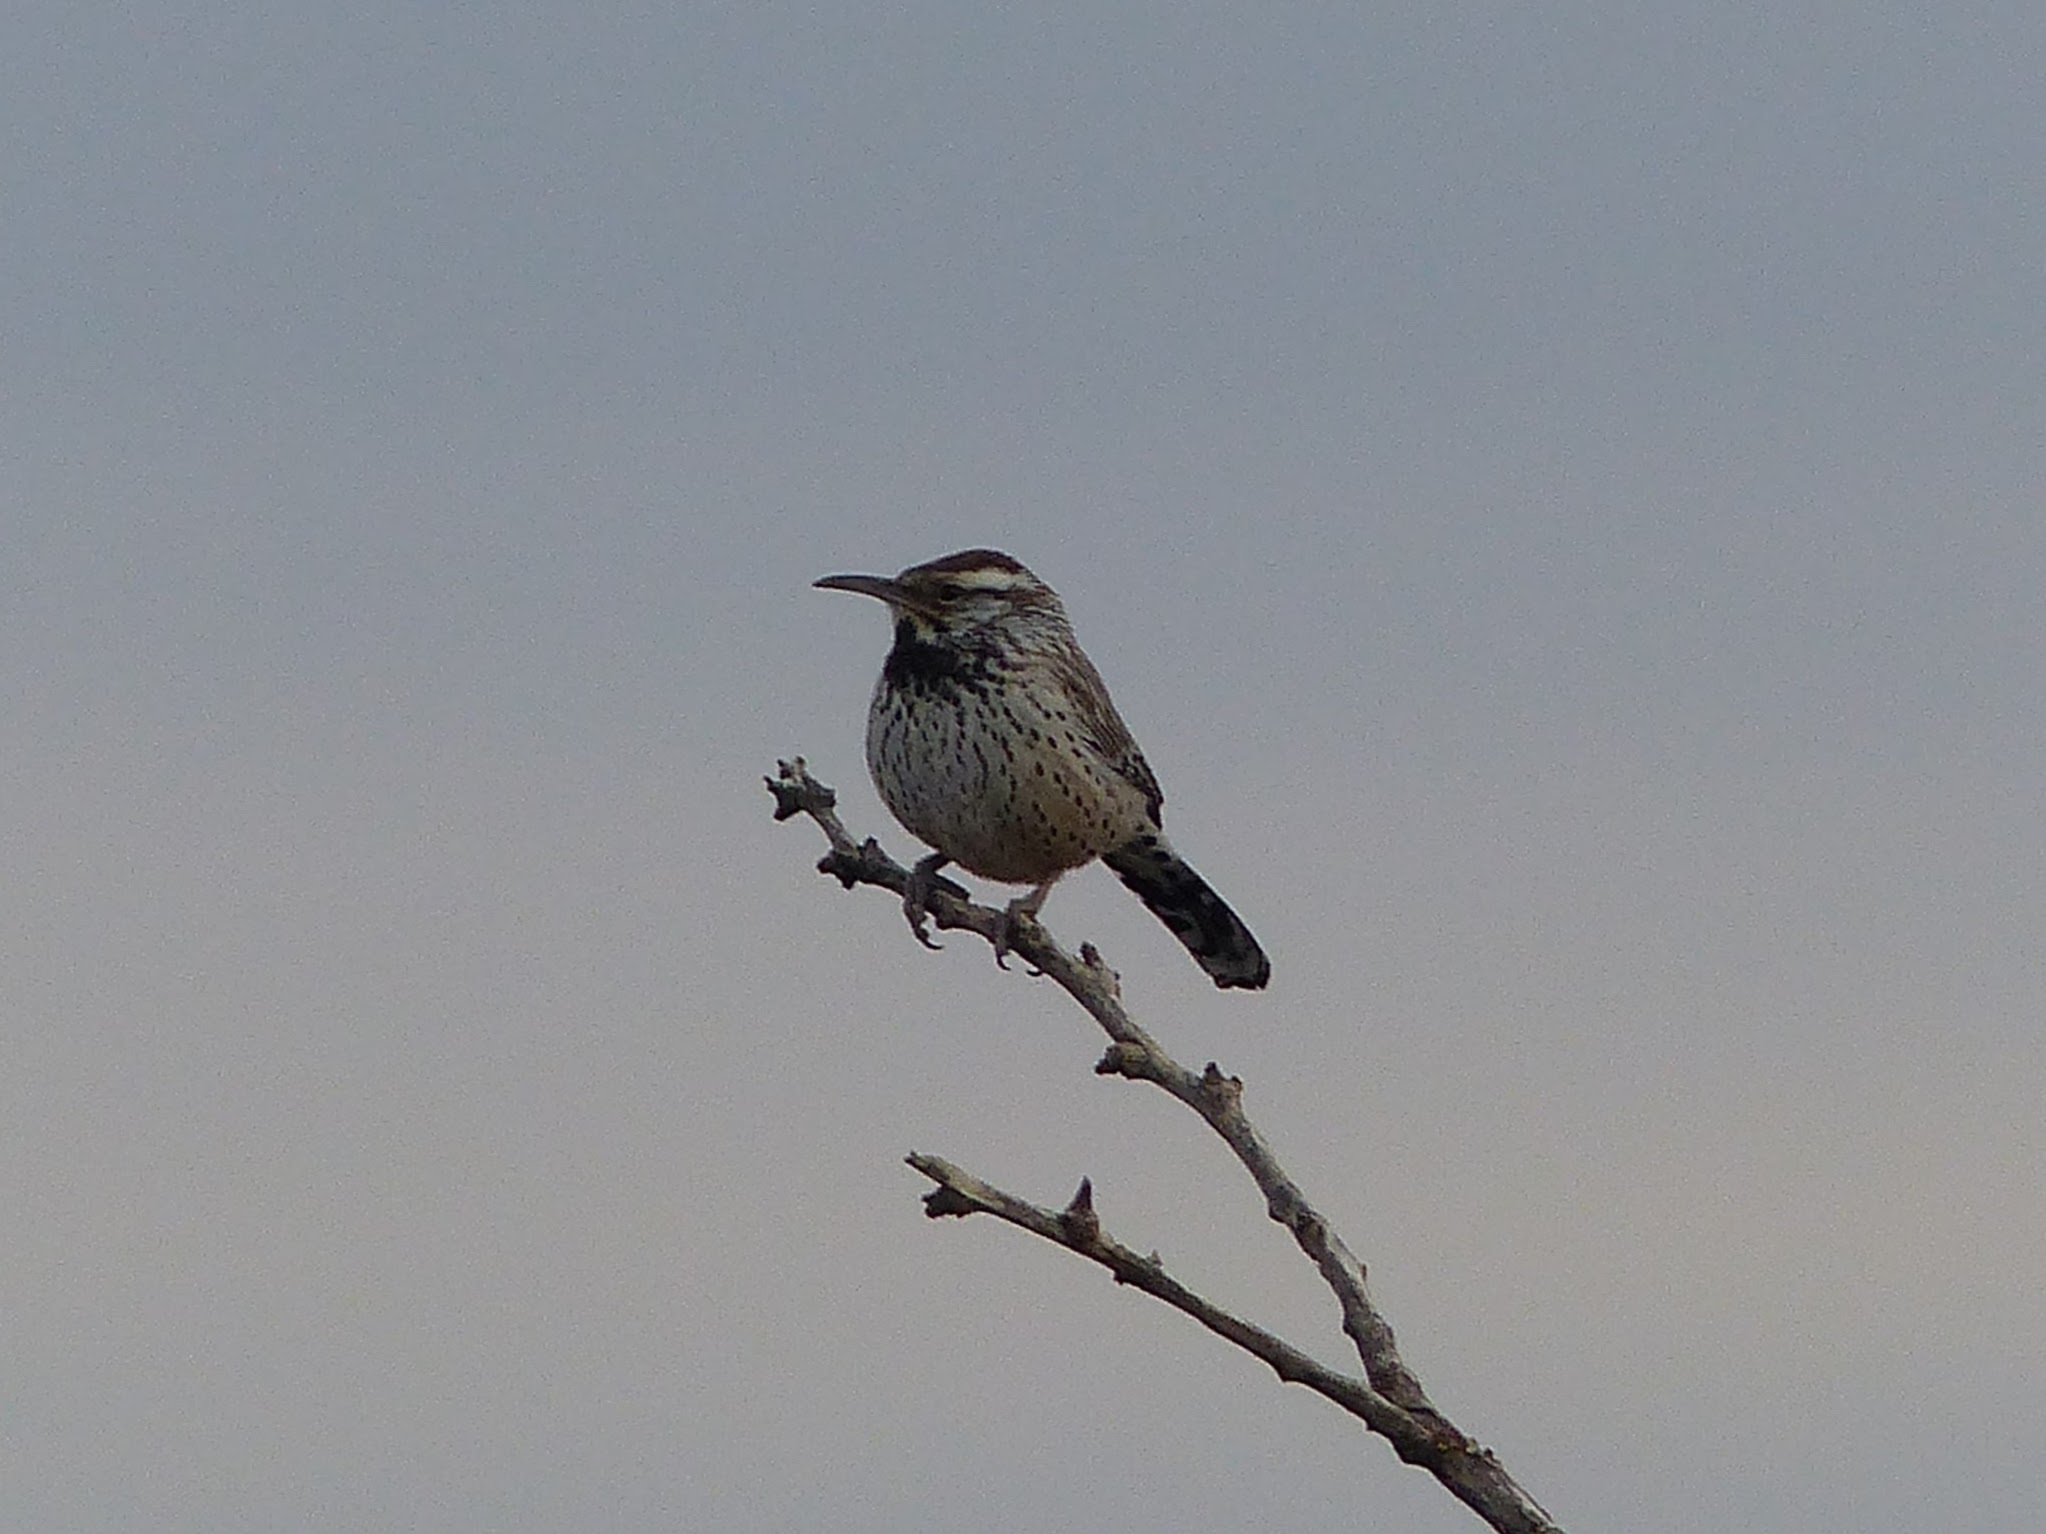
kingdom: Animalia
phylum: Chordata
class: Aves
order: Passeriformes
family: Troglodytidae
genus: Campylorhynchus
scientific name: Campylorhynchus brunneicapillus
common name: Cactus wren
